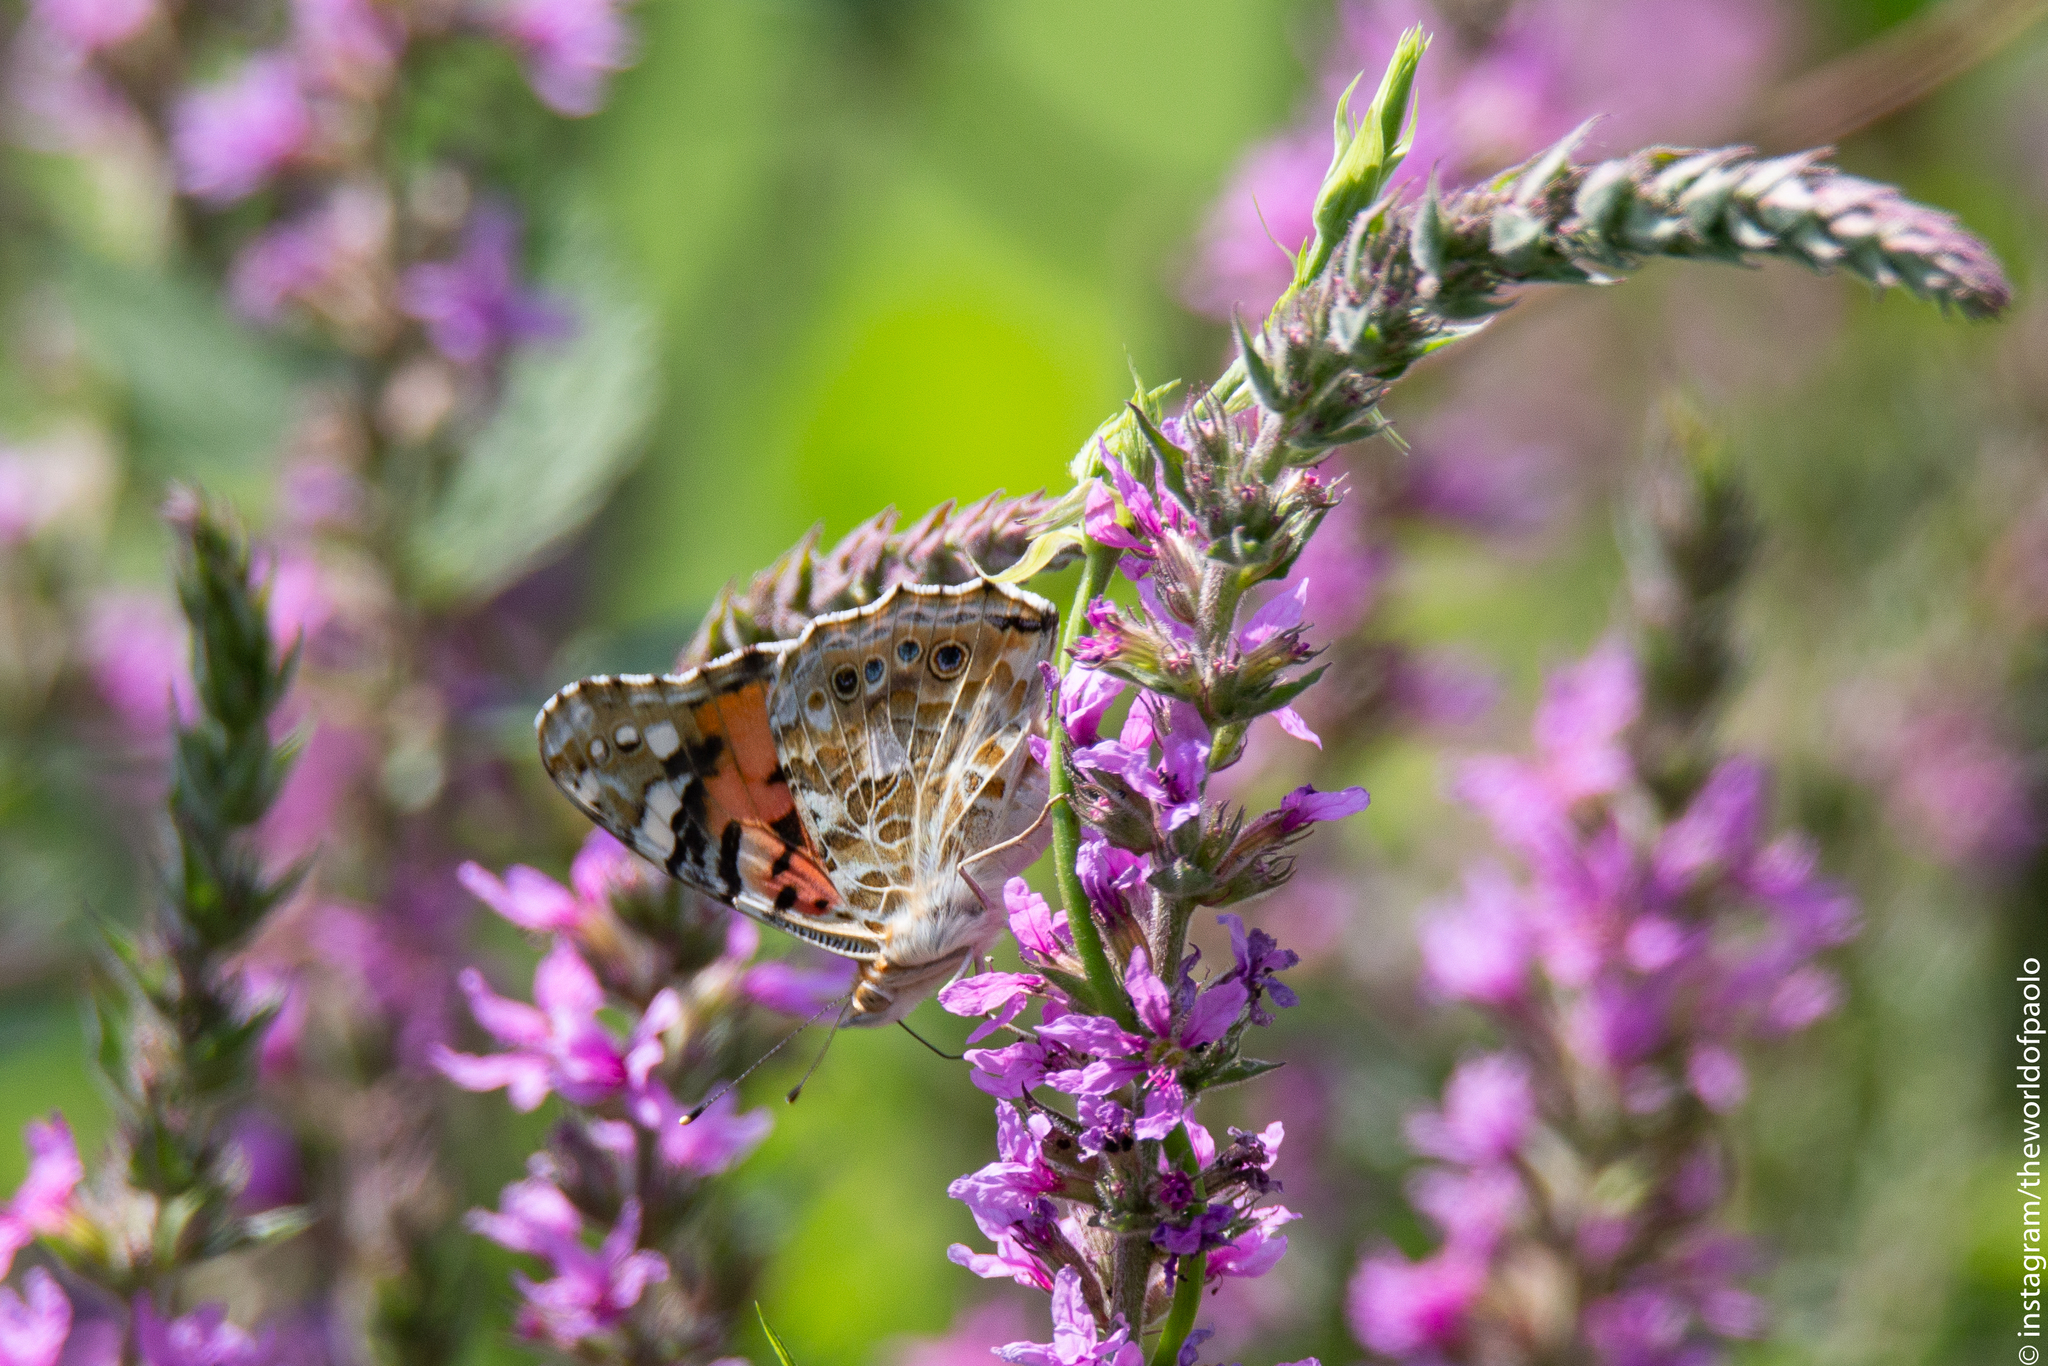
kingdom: Animalia
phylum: Arthropoda
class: Insecta
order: Lepidoptera
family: Nymphalidae
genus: Vanessa
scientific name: Vanessa cardui
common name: Painted lady
